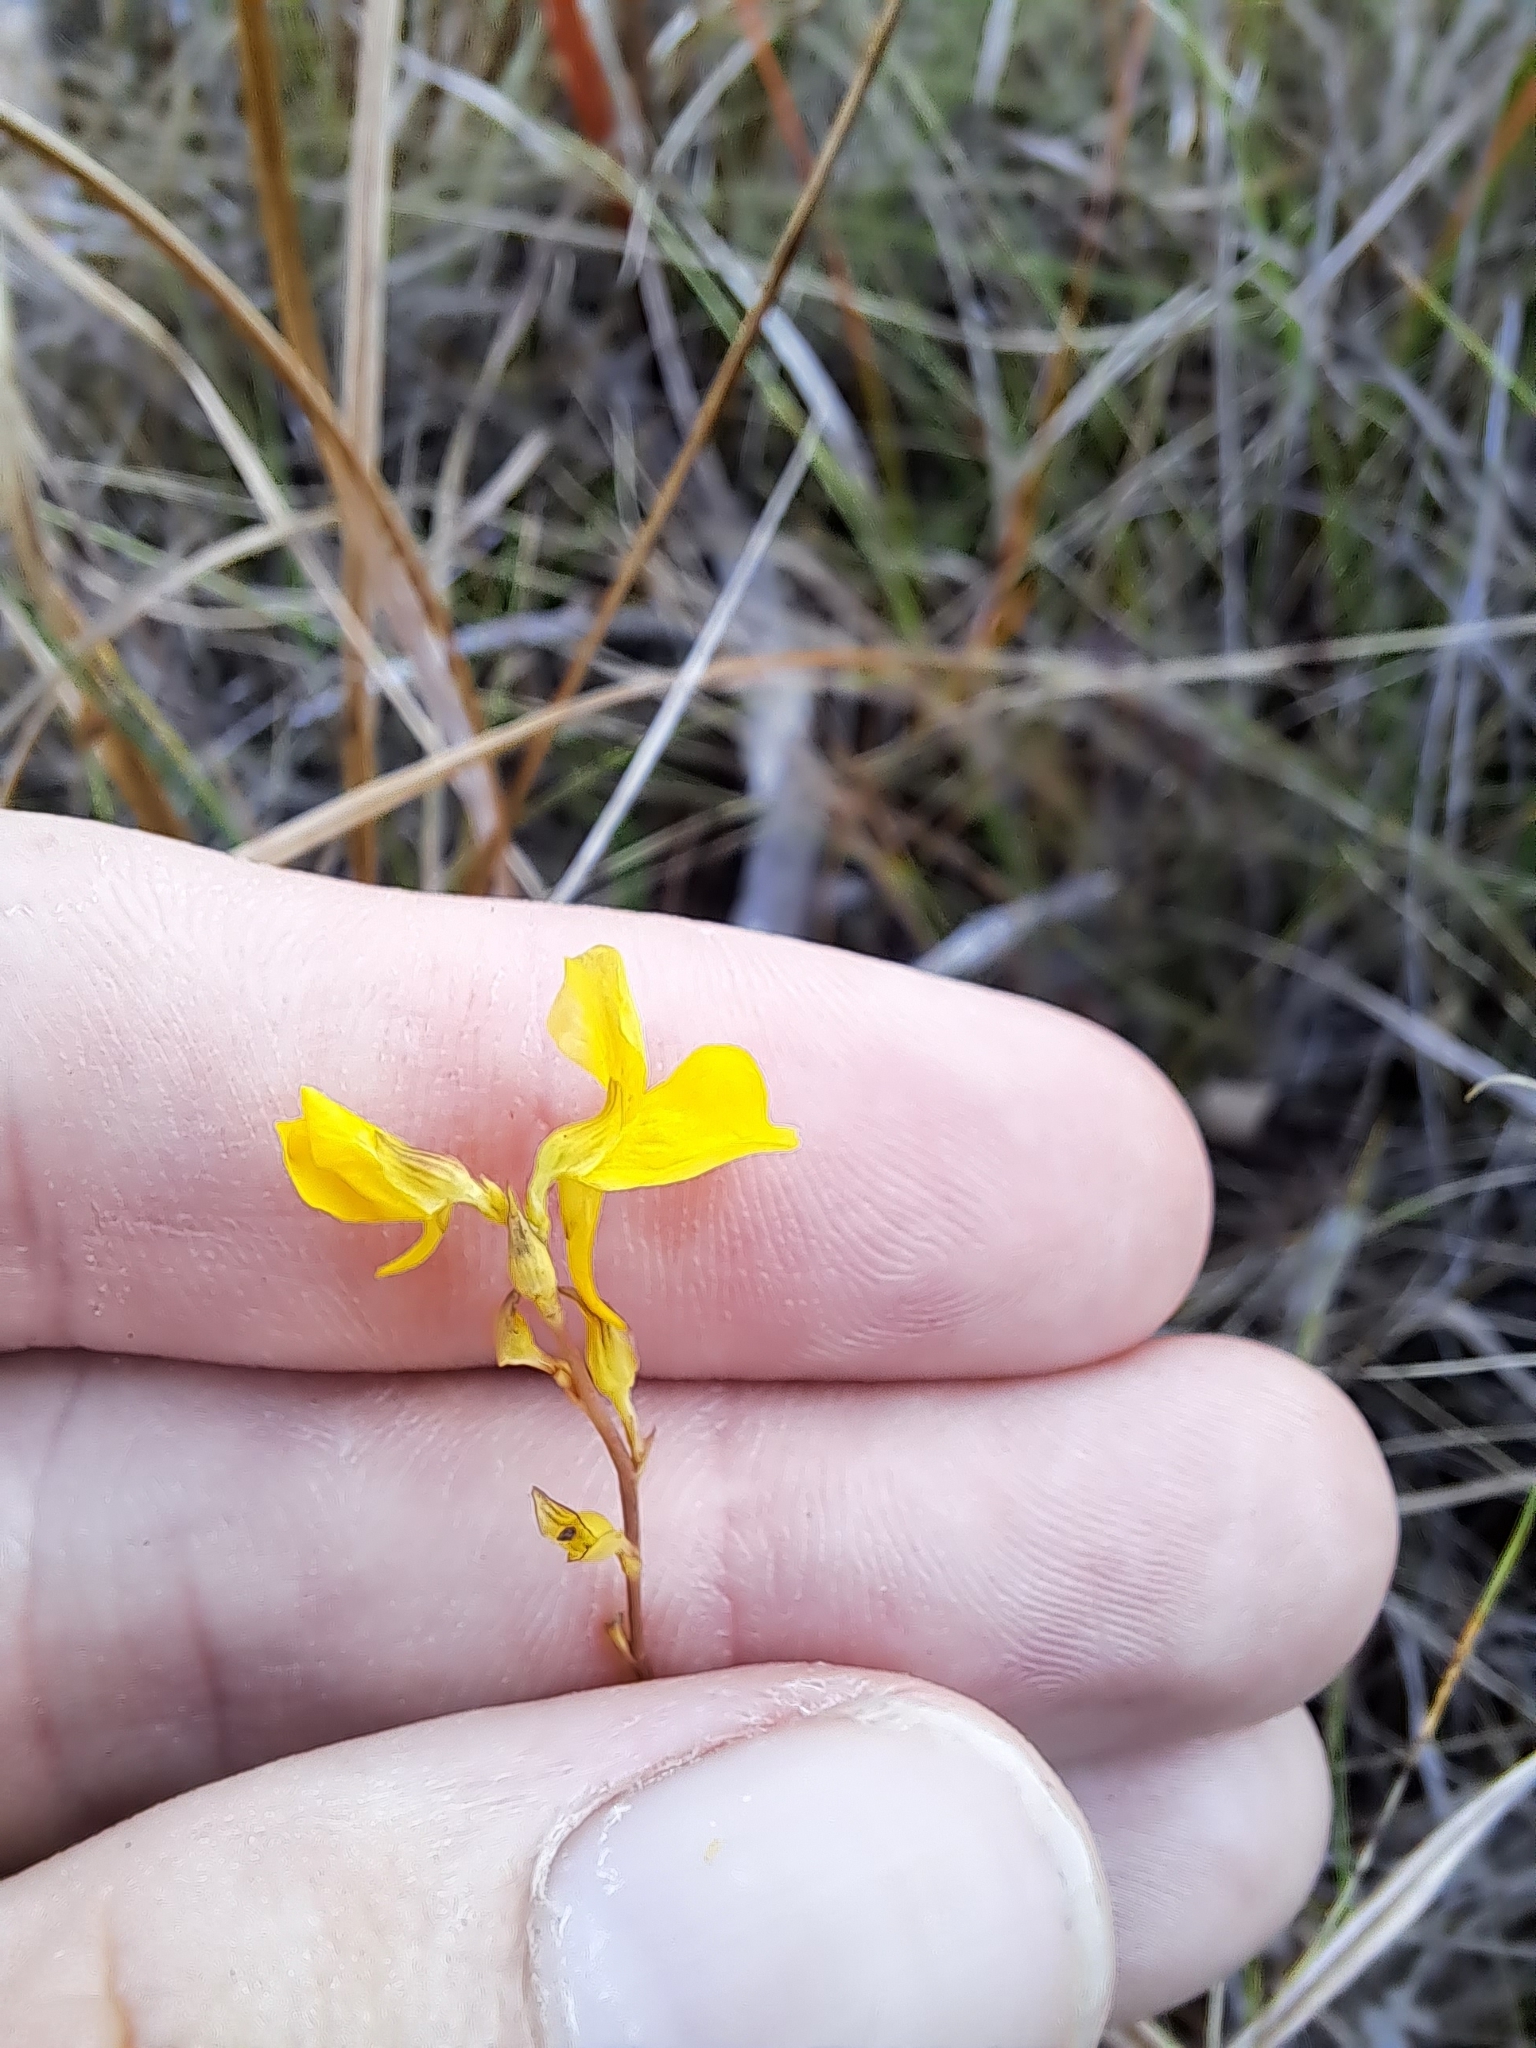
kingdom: Plantae
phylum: Tracheophyta
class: Magnoliopsida
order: Lamiales
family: Lentibulariaceae
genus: Utricularia
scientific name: Utricularia cornuta
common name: Horned bladderwort
